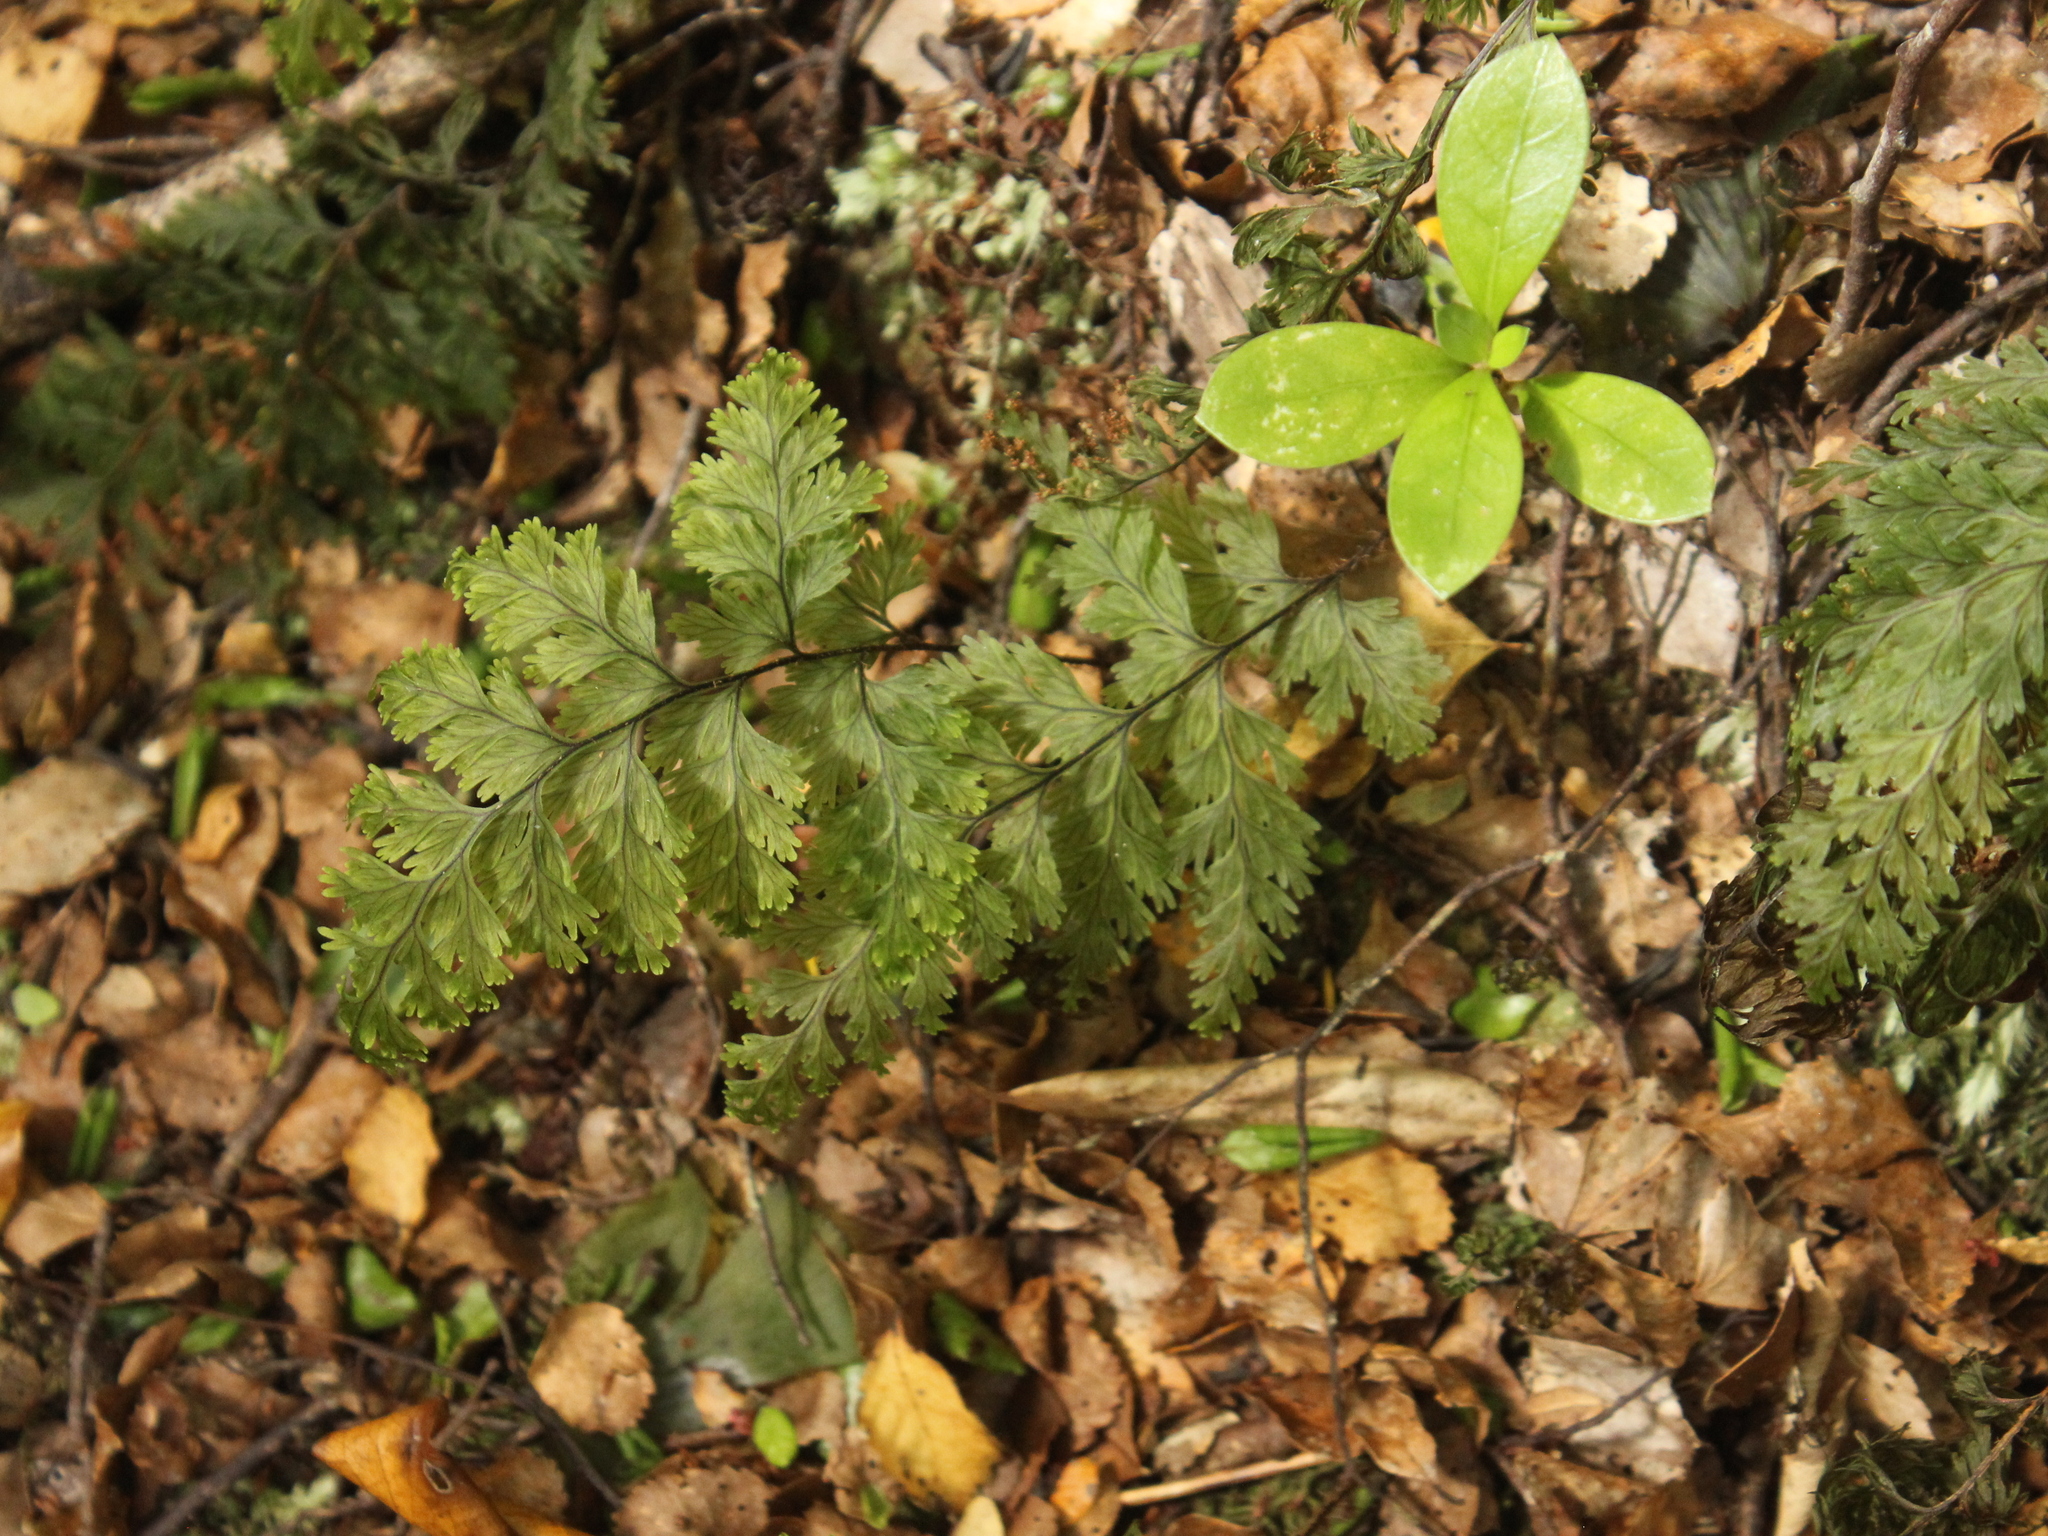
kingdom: Plantae
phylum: Tracheophyta
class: Polypodiopsida
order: Hymenophyllales
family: Hymenophyllaceae
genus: Hymenophyllum
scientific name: Hymenophyllum scabrum
